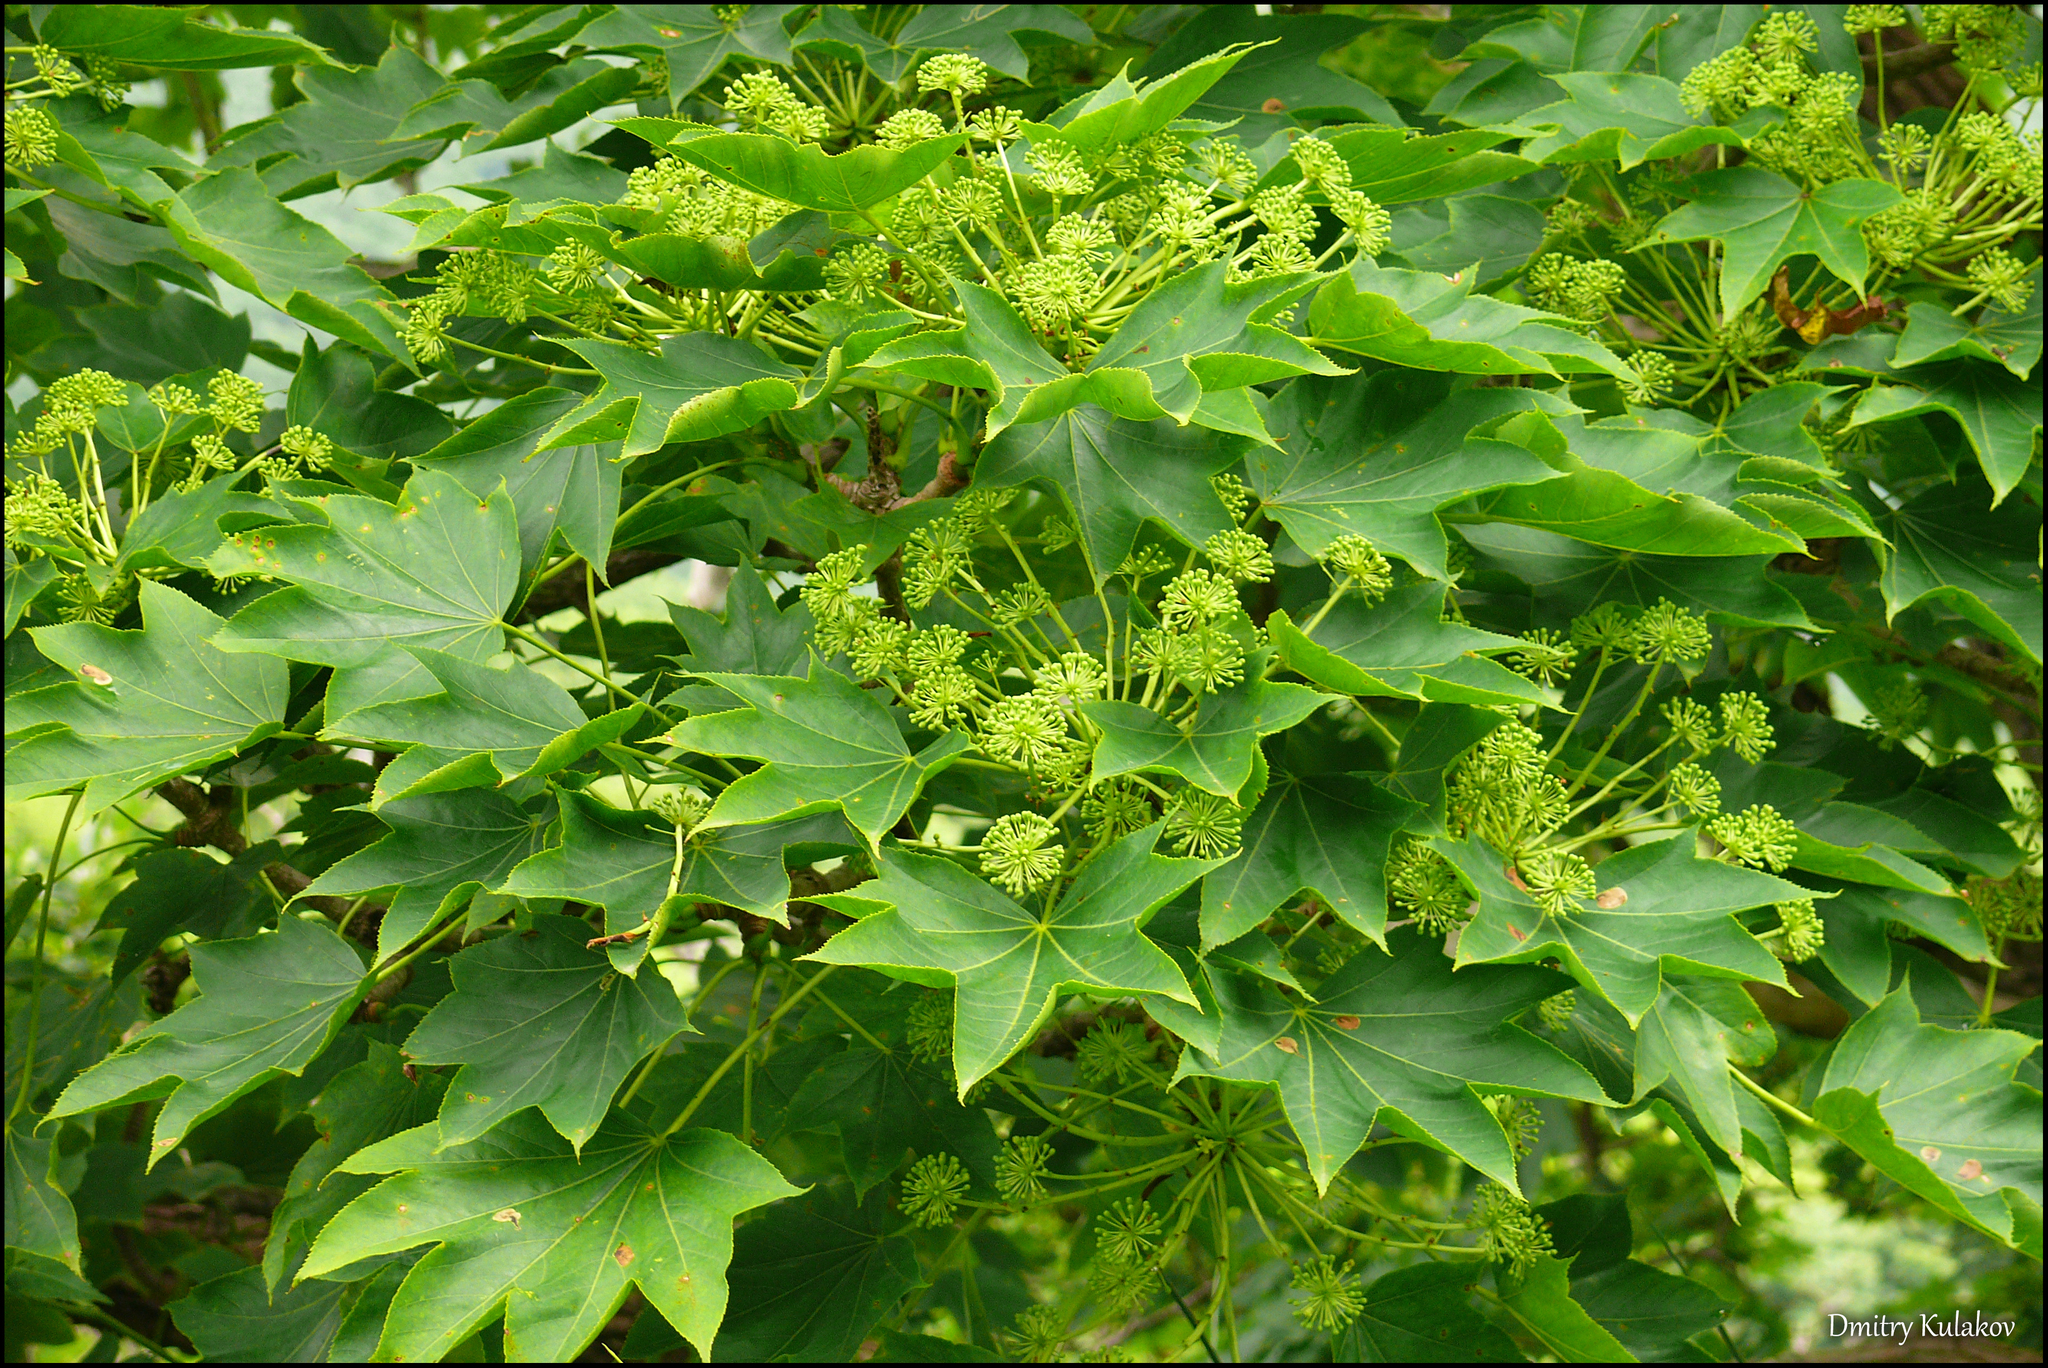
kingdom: Plantae
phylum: Tracheophyta
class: Magnoliopsida
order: Apiales
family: Araliaceae
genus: Kalopanax
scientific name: Kalopanax septemlobus
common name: Castor aralia
